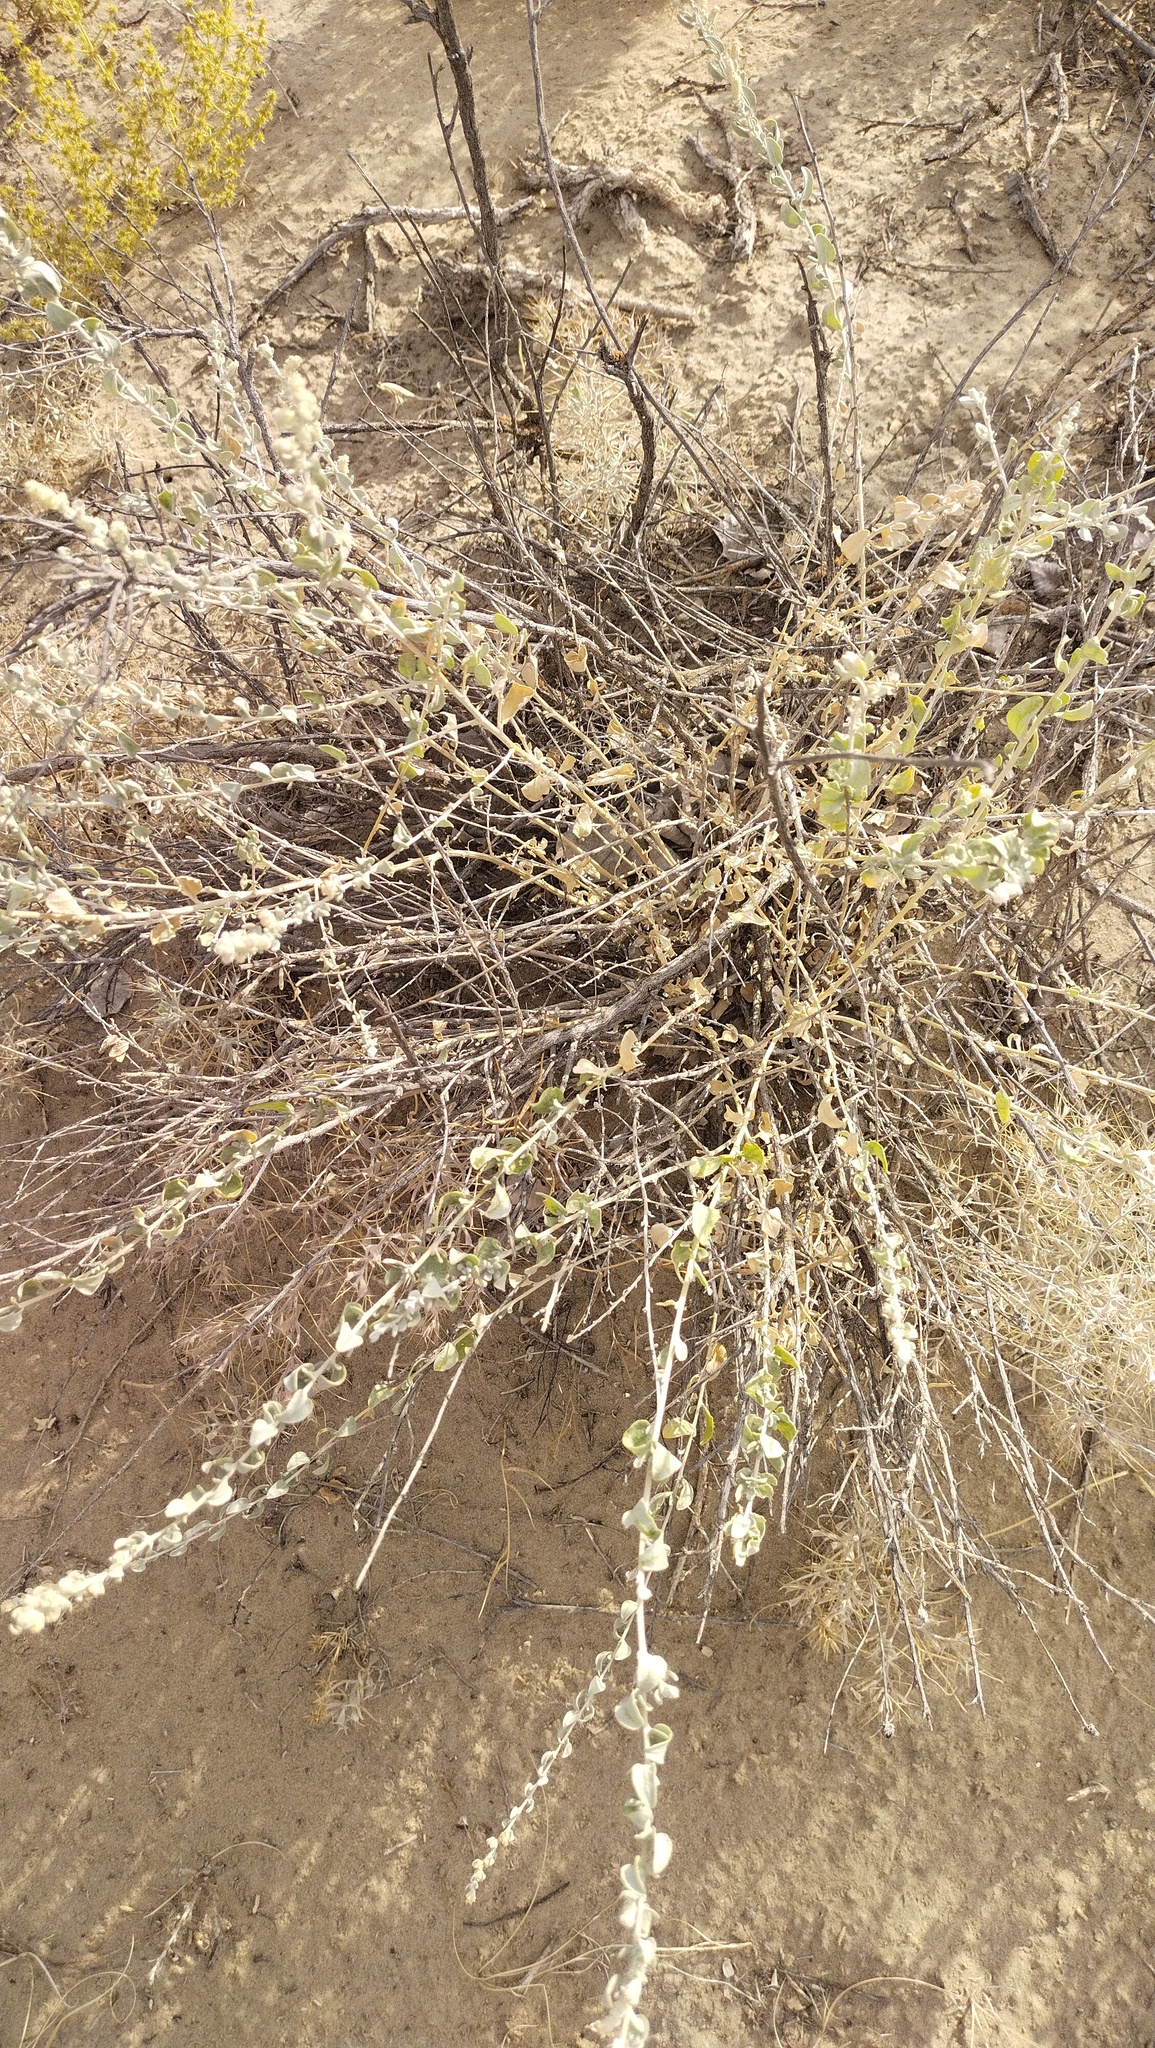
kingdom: Plantae
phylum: Tracheophyta
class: Magnoliopsida
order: Caryophyllales
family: Amaranthaceae
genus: Krascheninnikovia
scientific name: Krascheninnikovia ceratoides
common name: Pamirian winterfat
